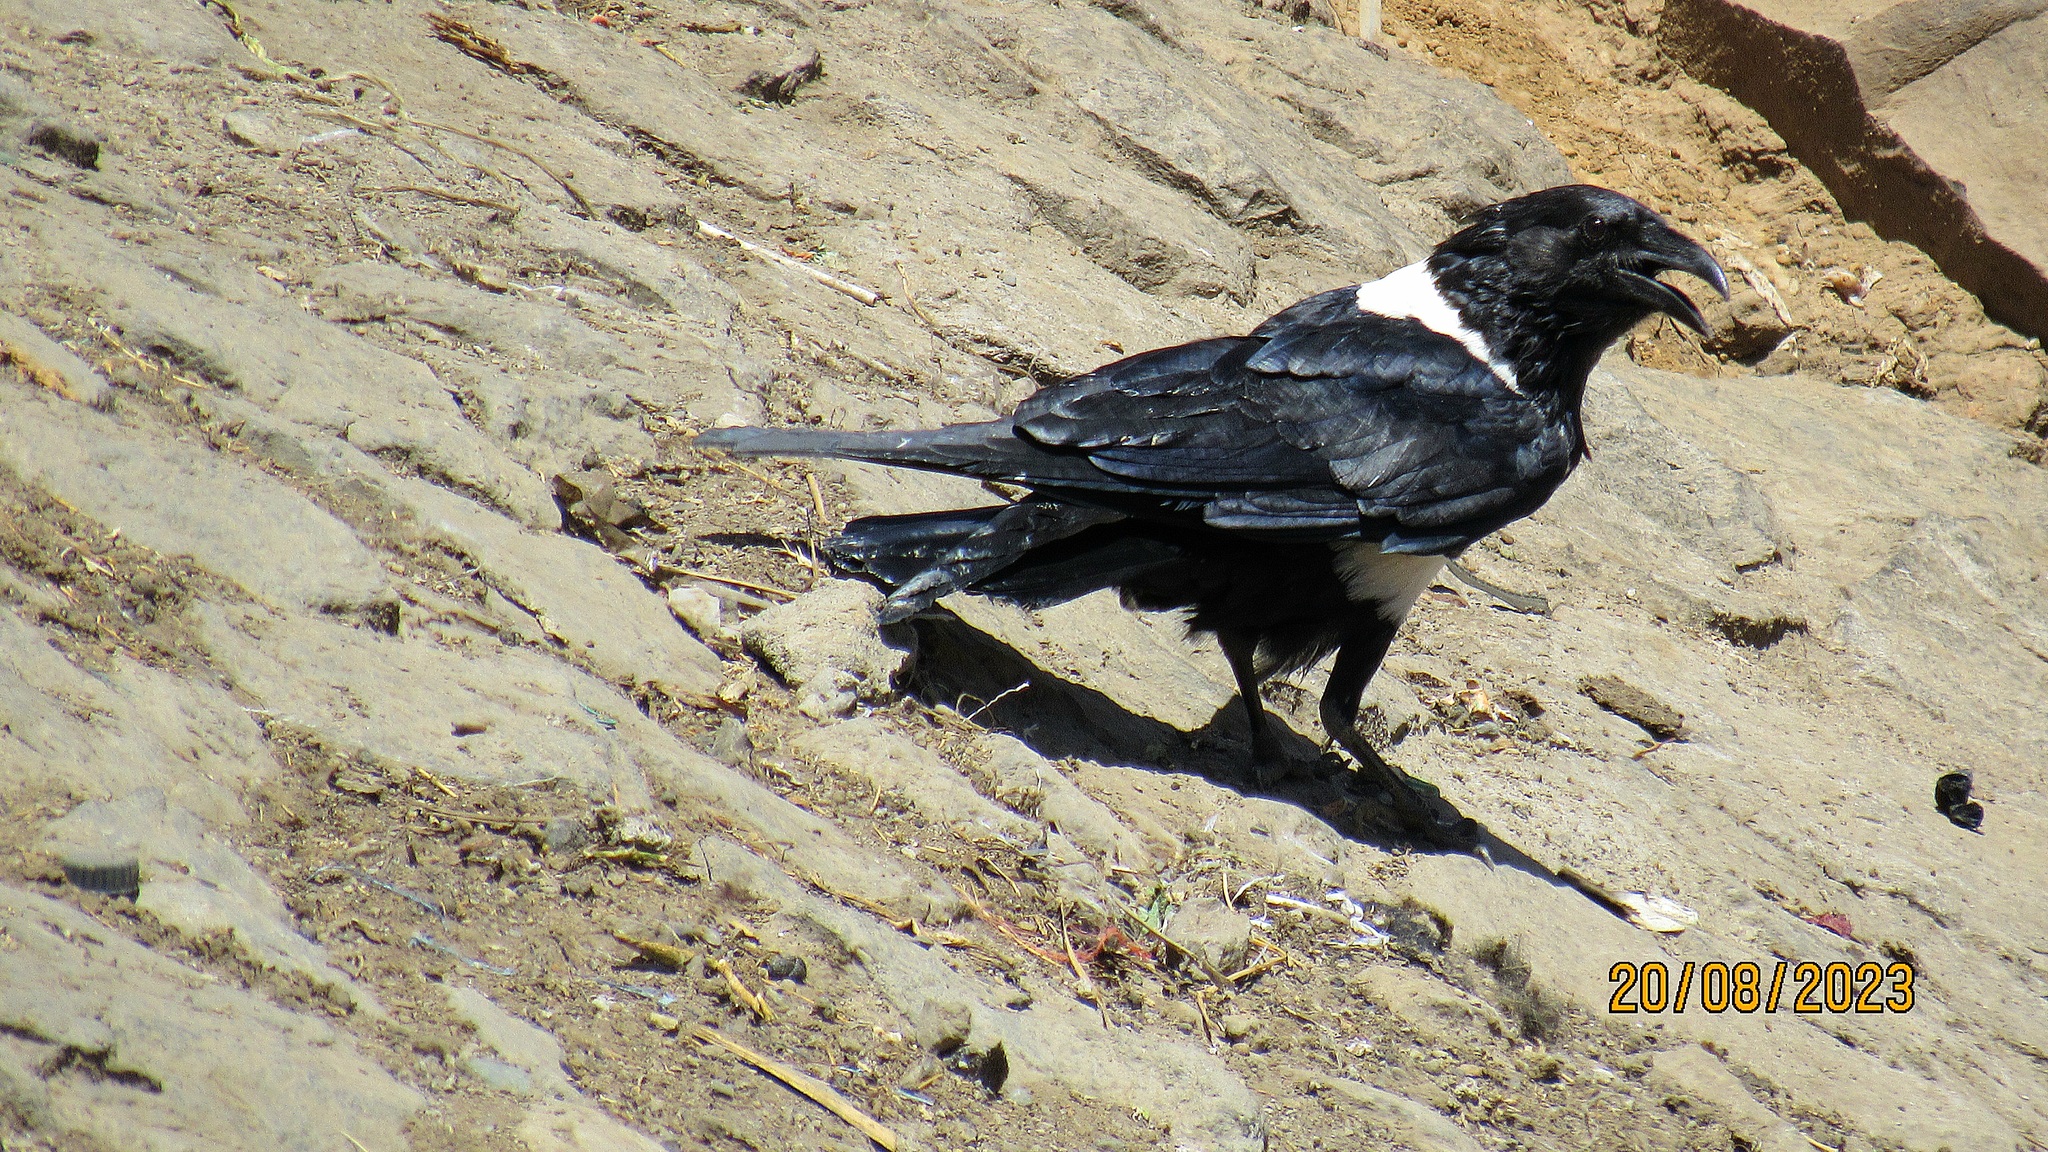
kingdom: Animalia
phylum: Chordata
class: Aves
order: Passeriformes
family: Corvidae
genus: Corvus
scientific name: Corvus albus
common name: Pied crow
